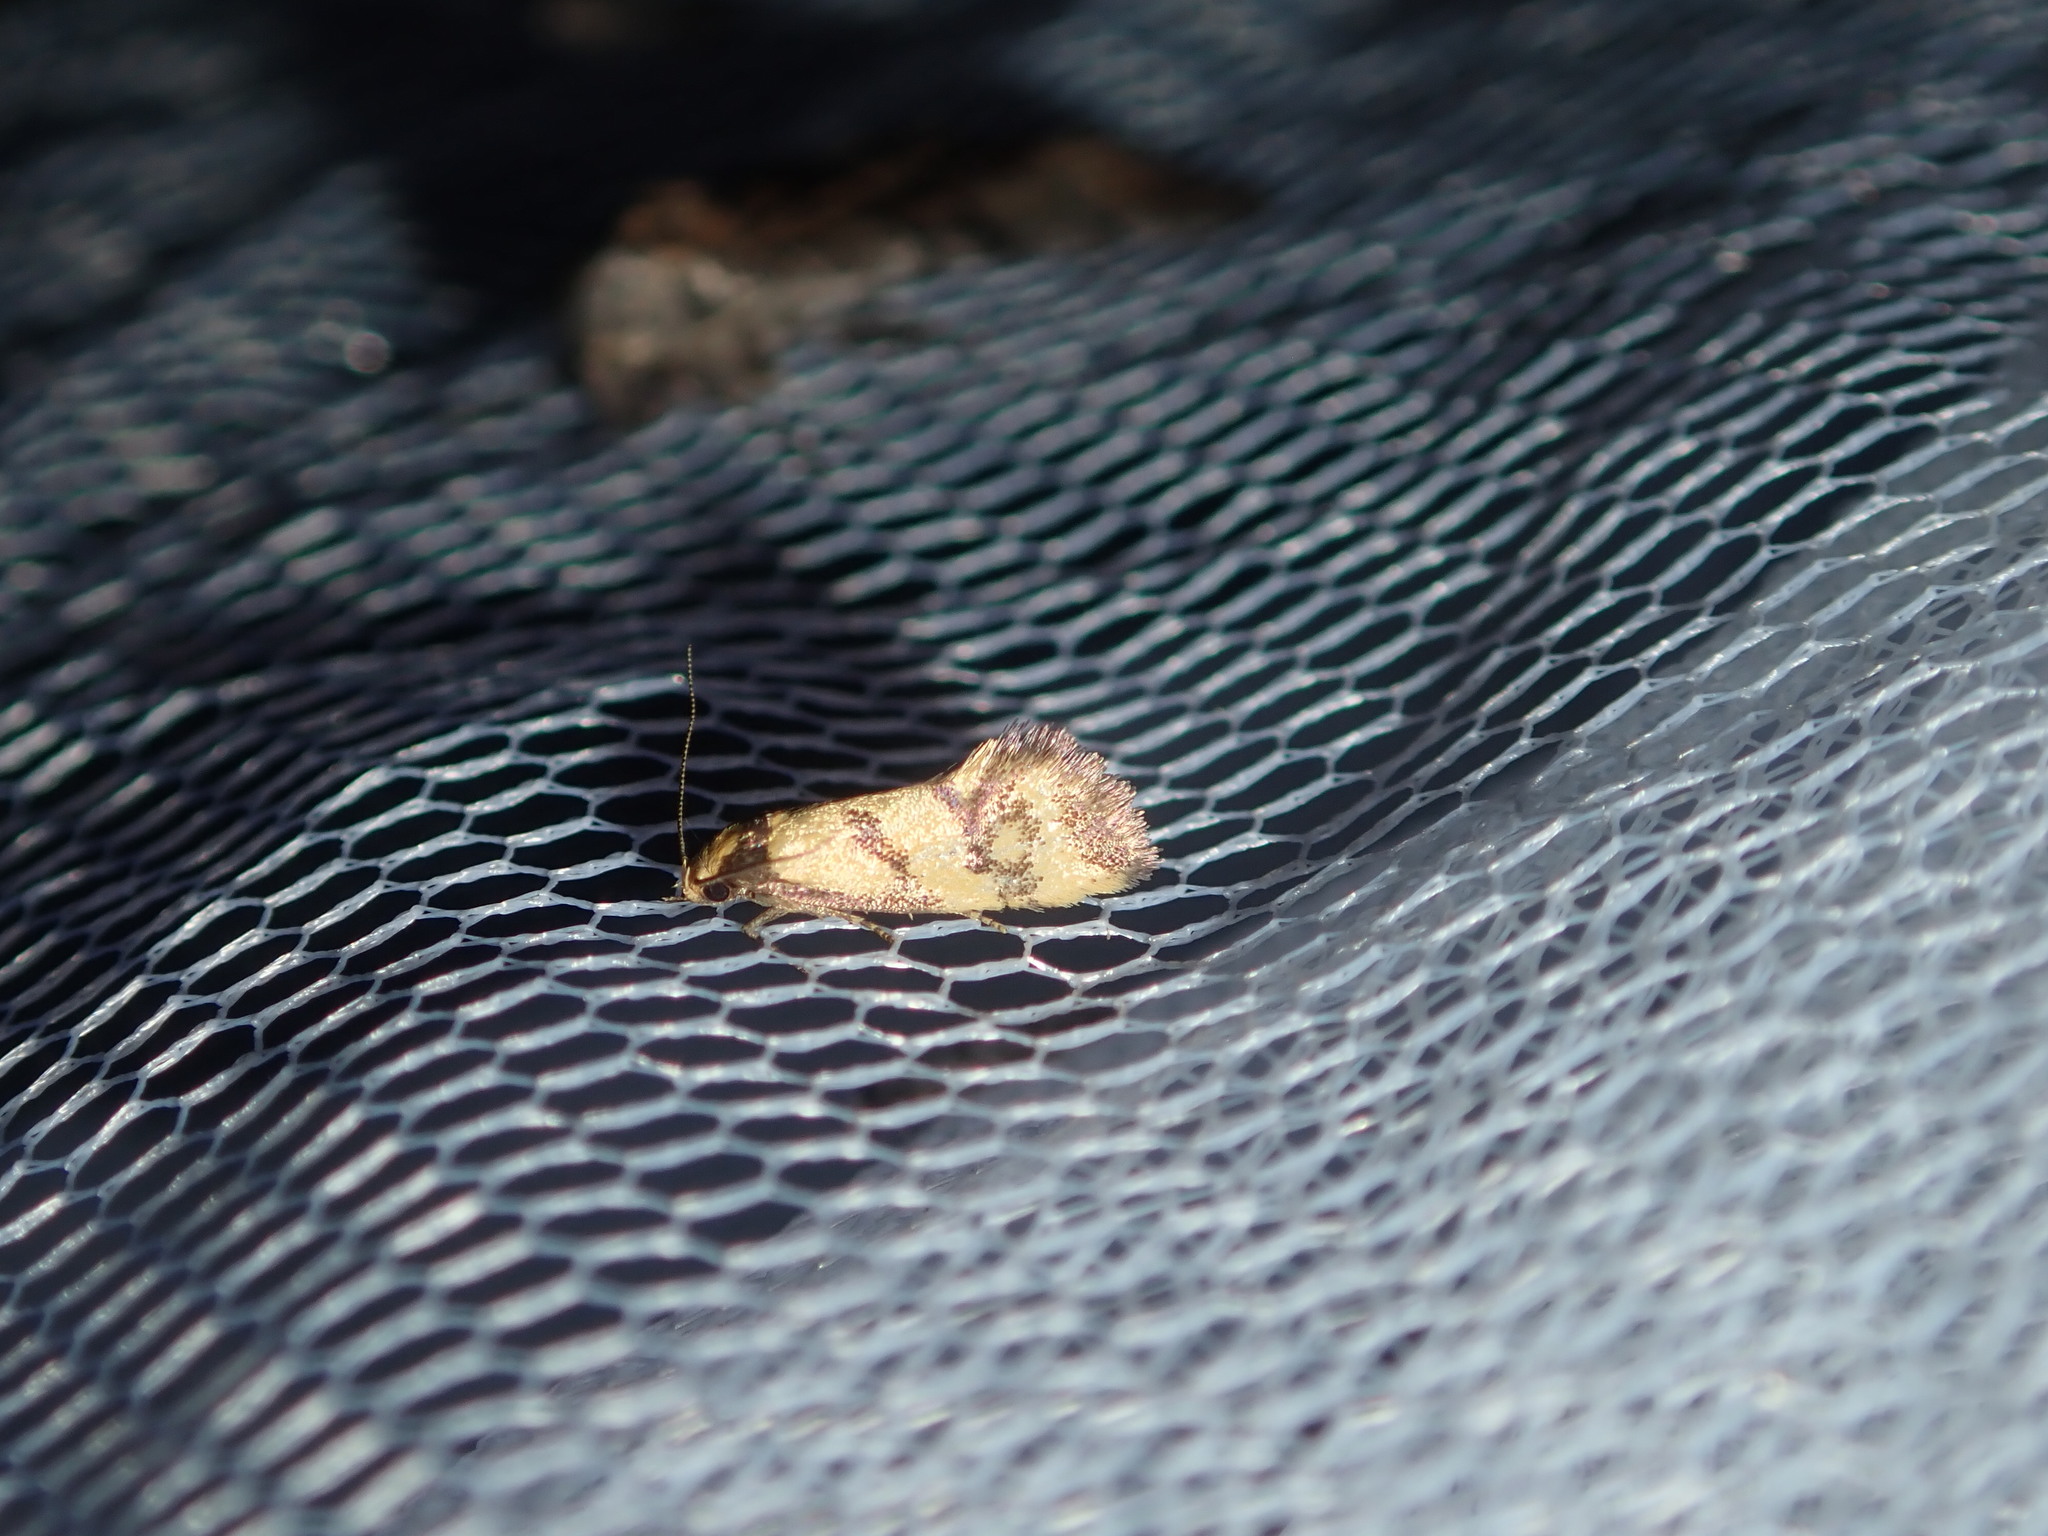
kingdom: Animalia
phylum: Arthropoda
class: Insecta
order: Lepidoptera
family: Oecophoridae
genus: Olbonoma
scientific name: Olbonoma triptycha
